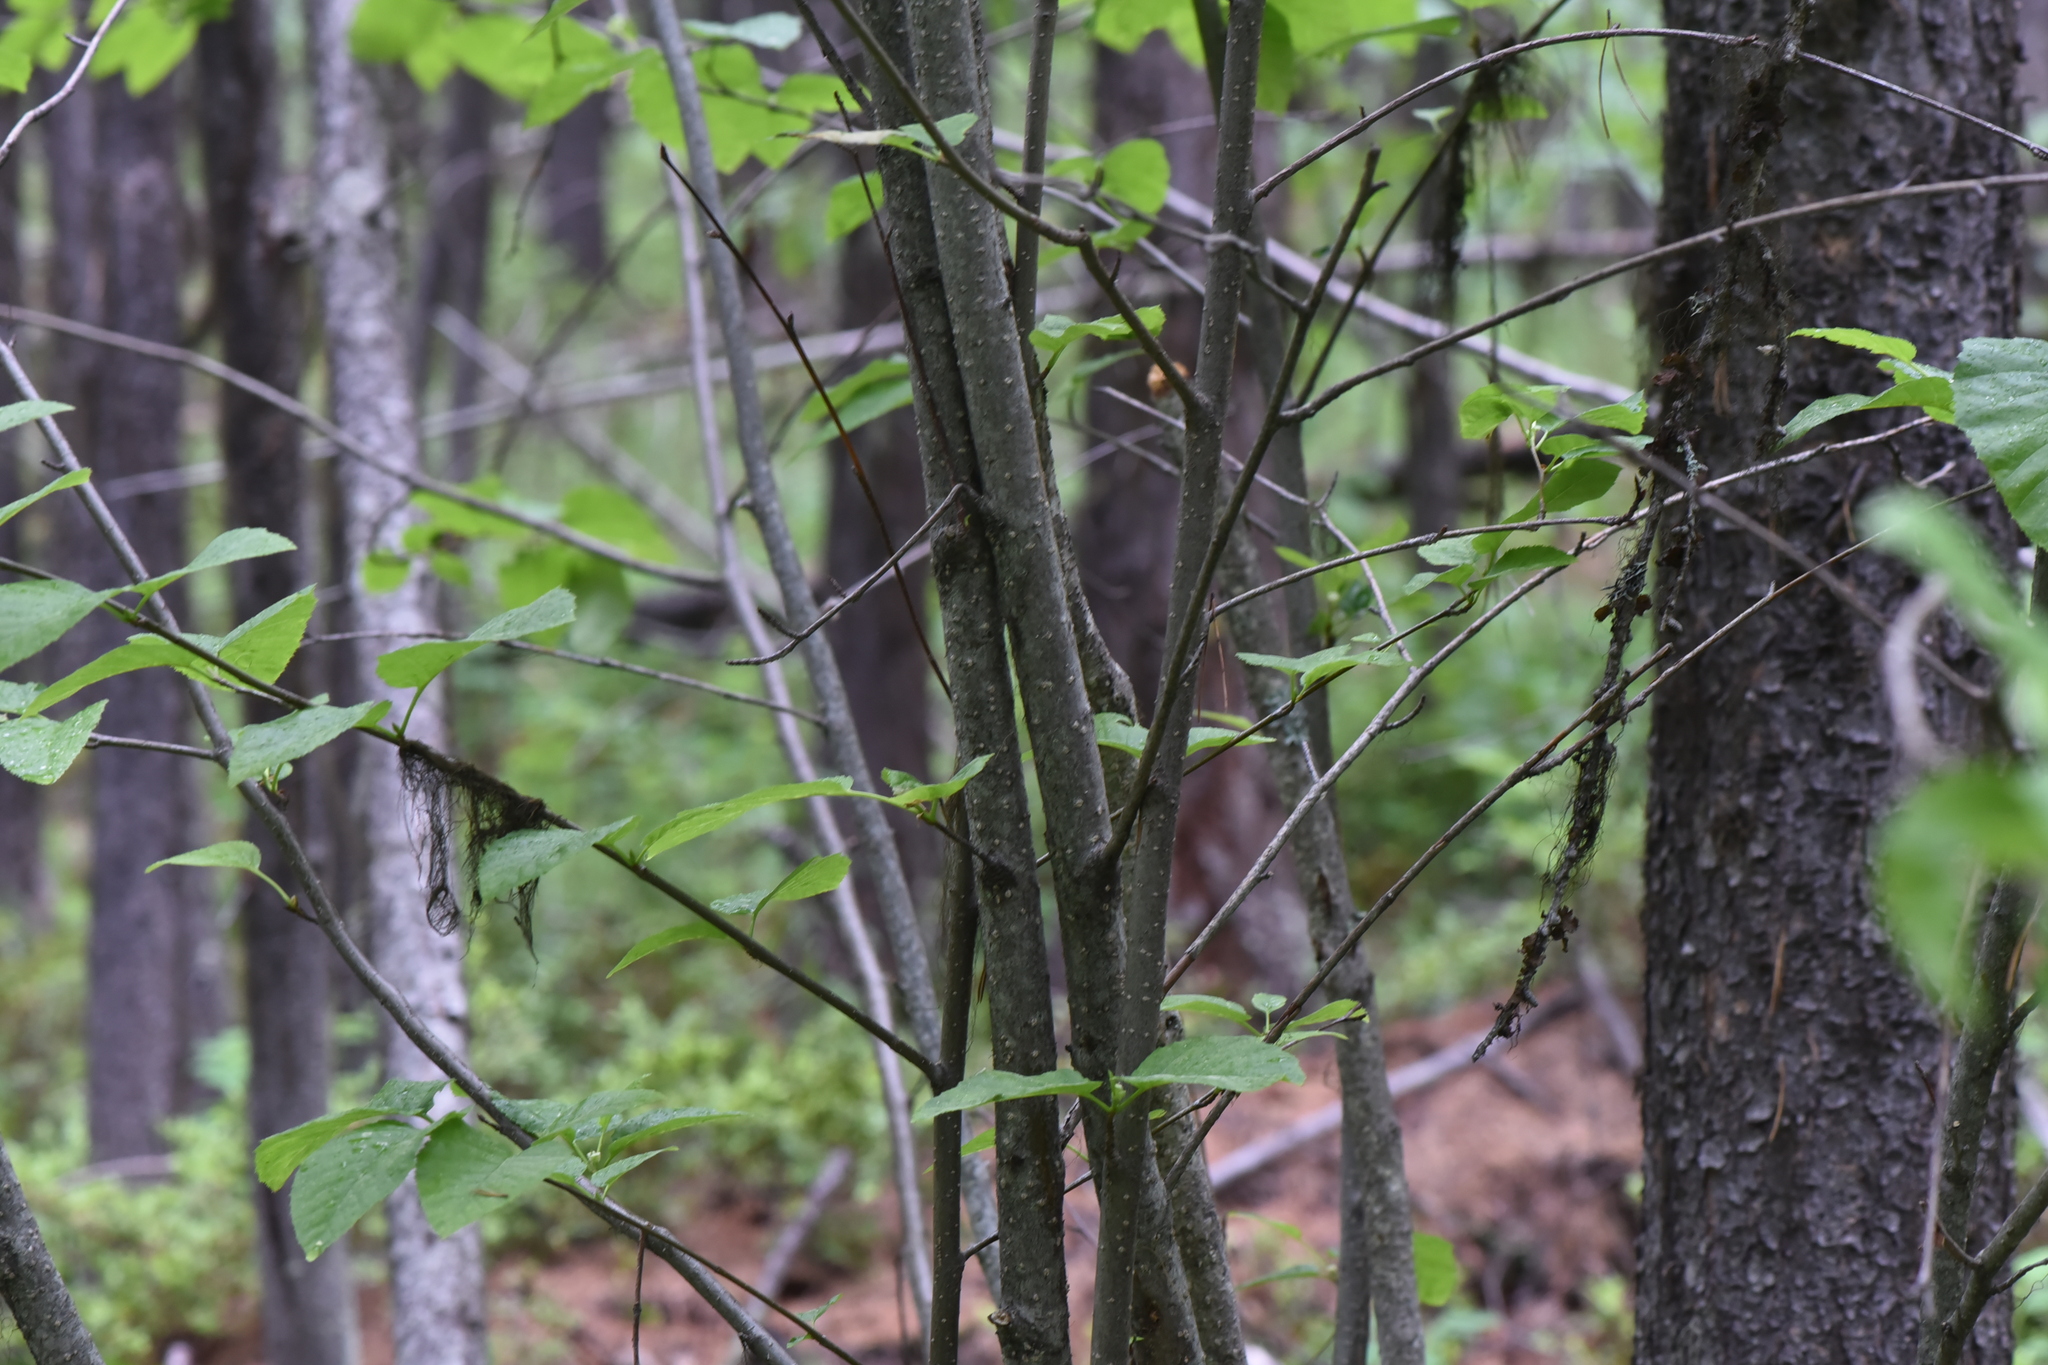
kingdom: Plantae
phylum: Tracheophyta
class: Magnoliopsida
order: Fagales
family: Betulaceae
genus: Alnus
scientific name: Alnus alnobetula
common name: Green alder
